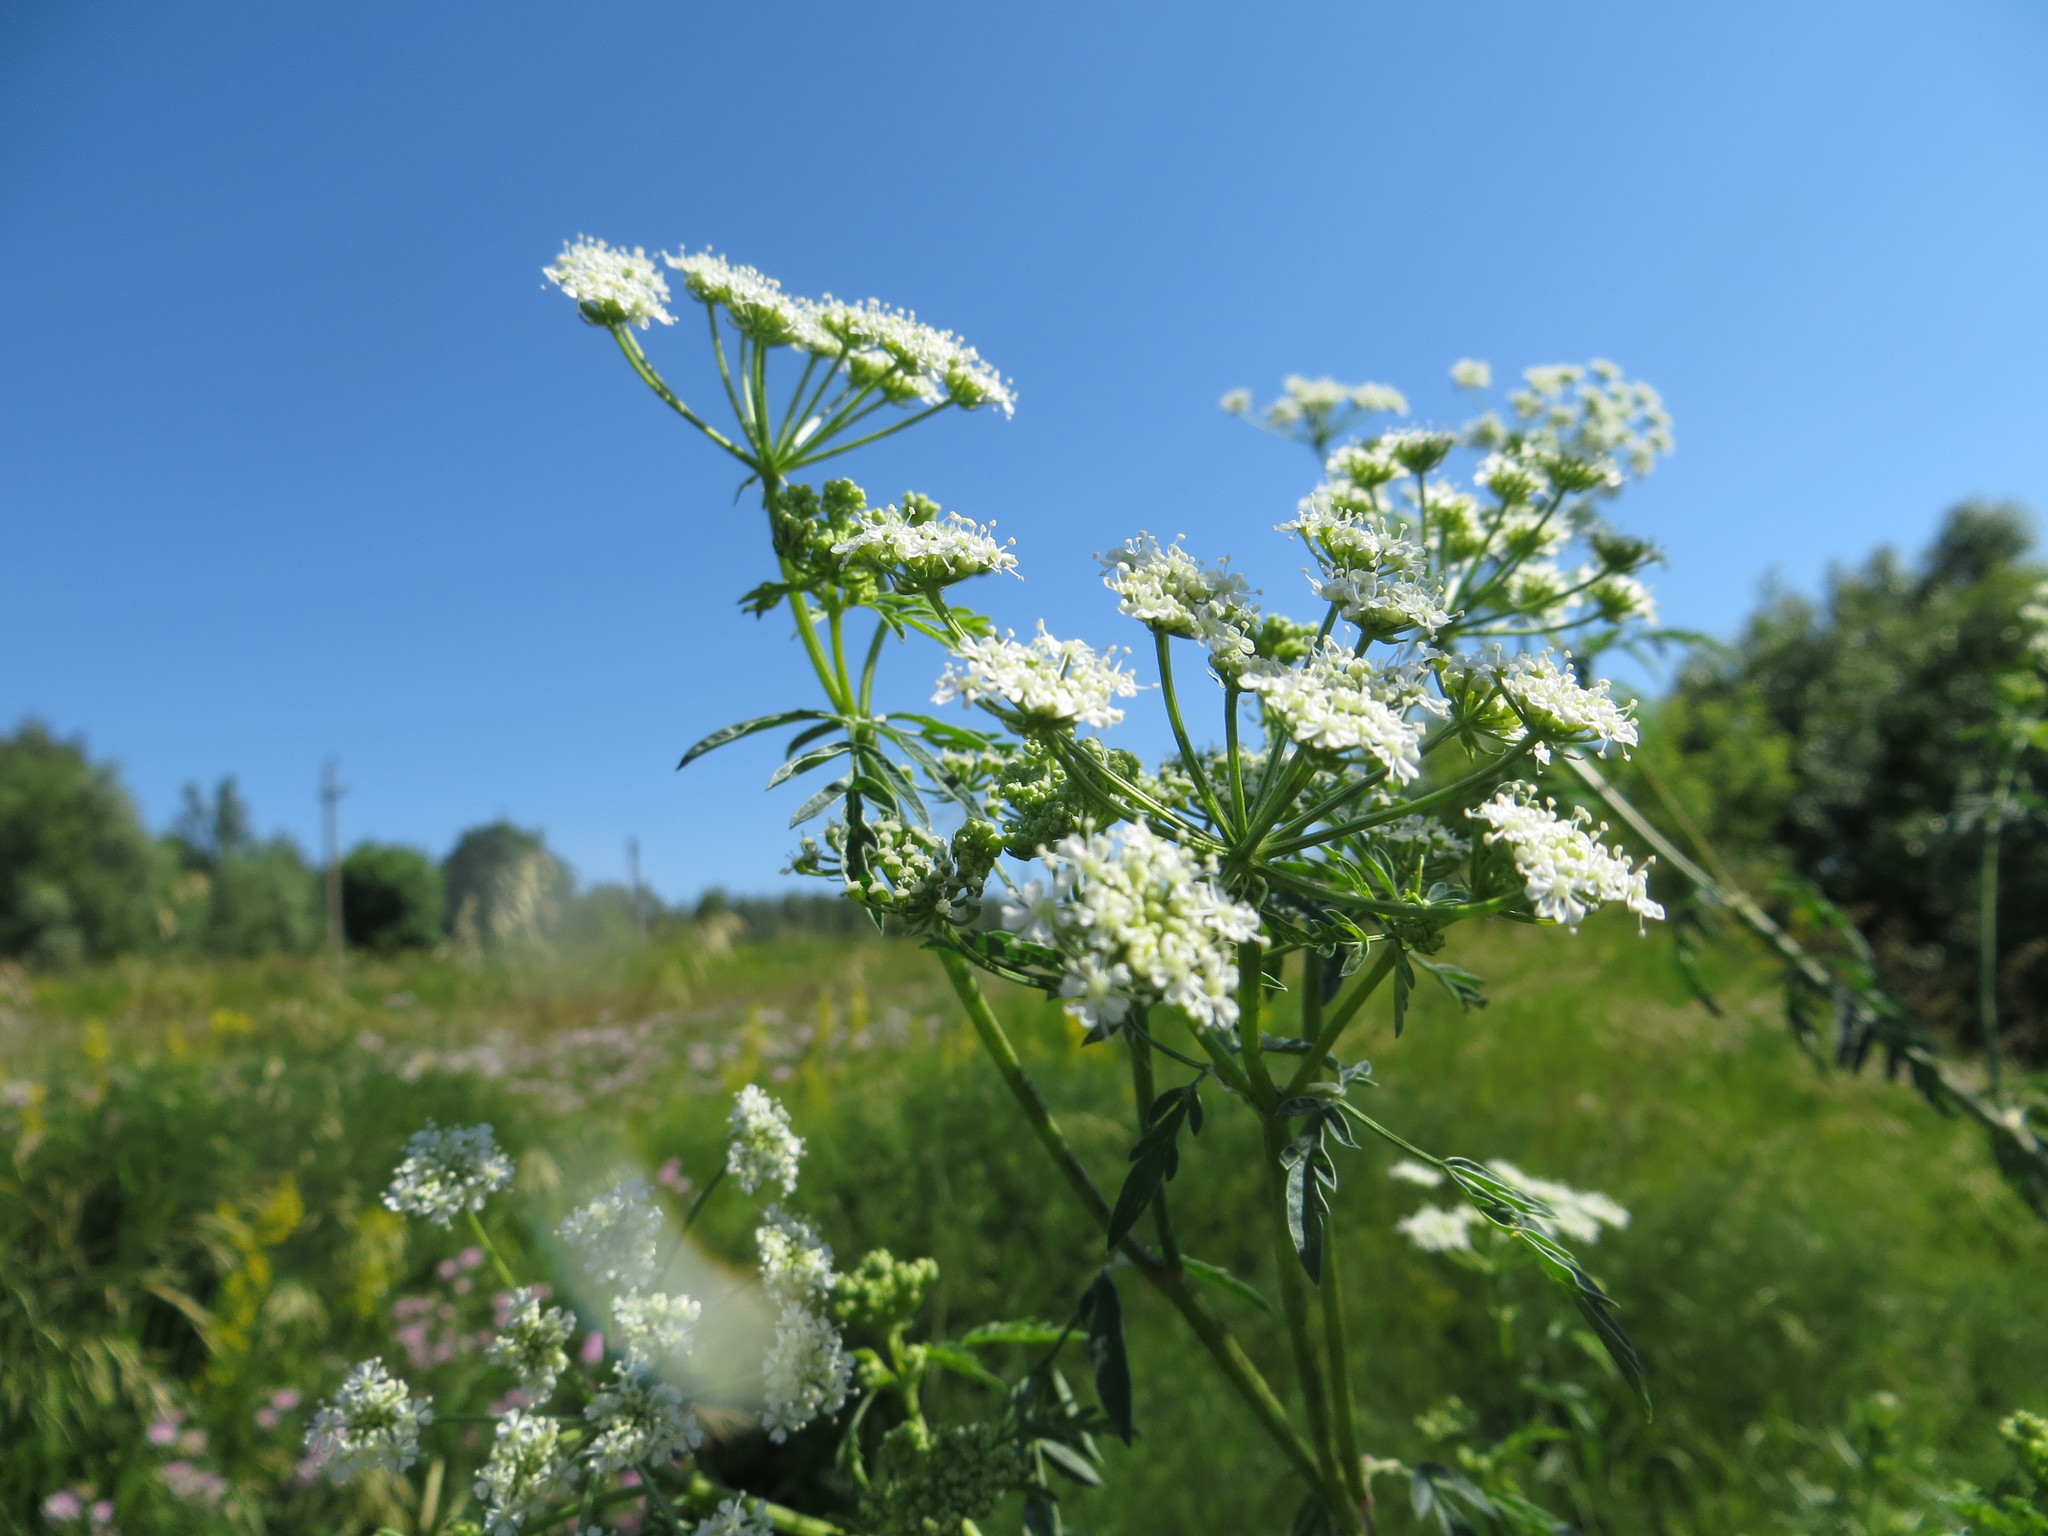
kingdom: Plantae
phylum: Tracheophyta
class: Magnoliopsida
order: Apiales
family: Apiaceae
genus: Conium
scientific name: Conium maculatum
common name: Hemlock
